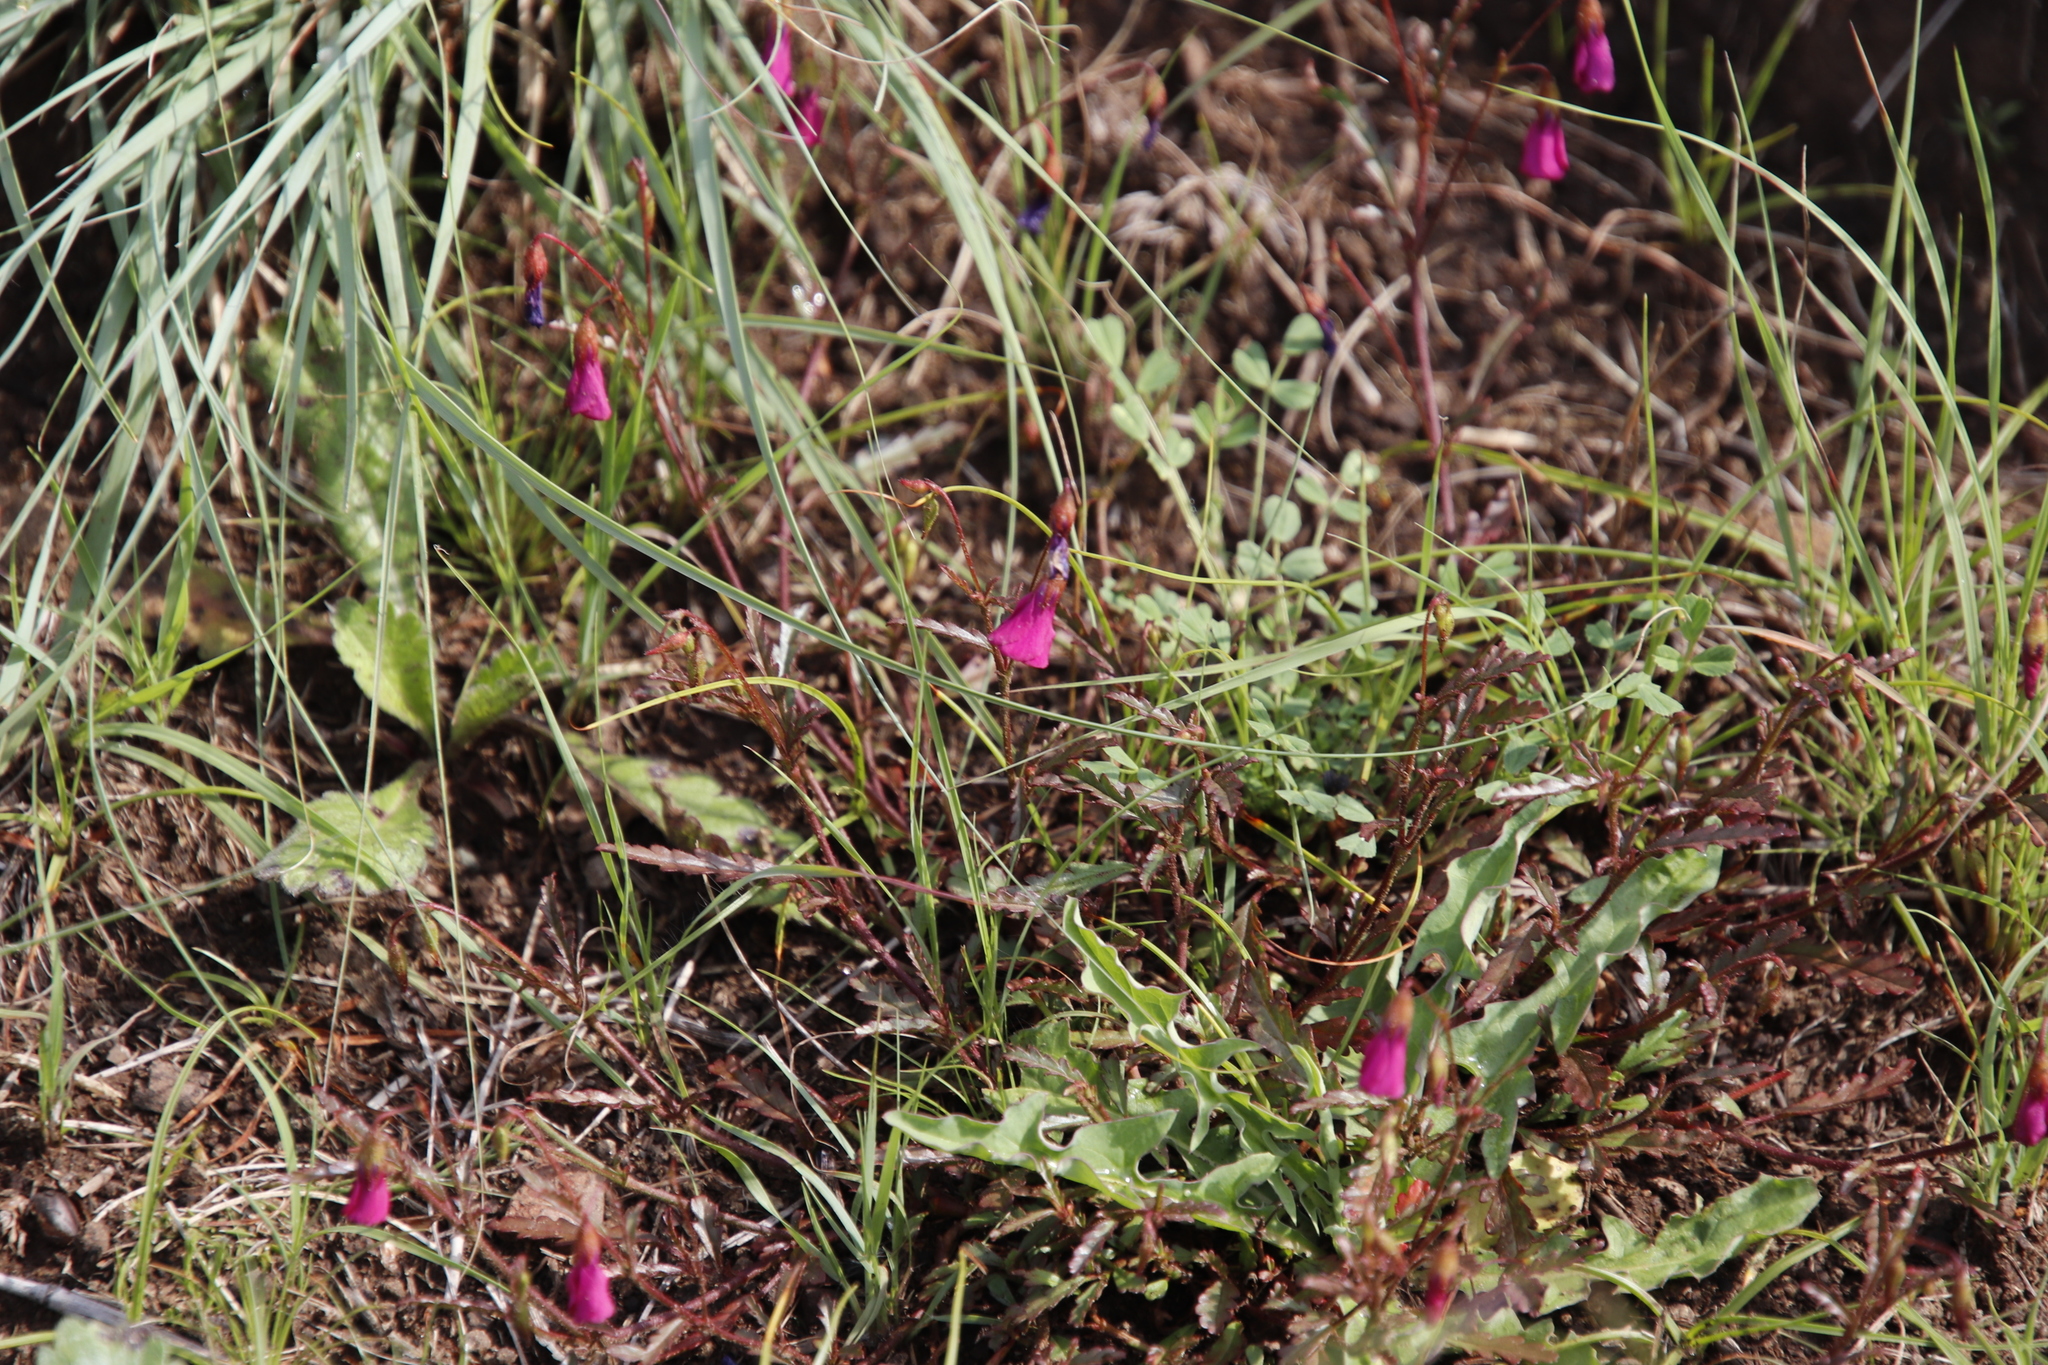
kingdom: Plantae
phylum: Tracheophyta
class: Magnoliopsida
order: Malvales
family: Malvaceae
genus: Hermannia
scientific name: Hermannia coccocarpa
